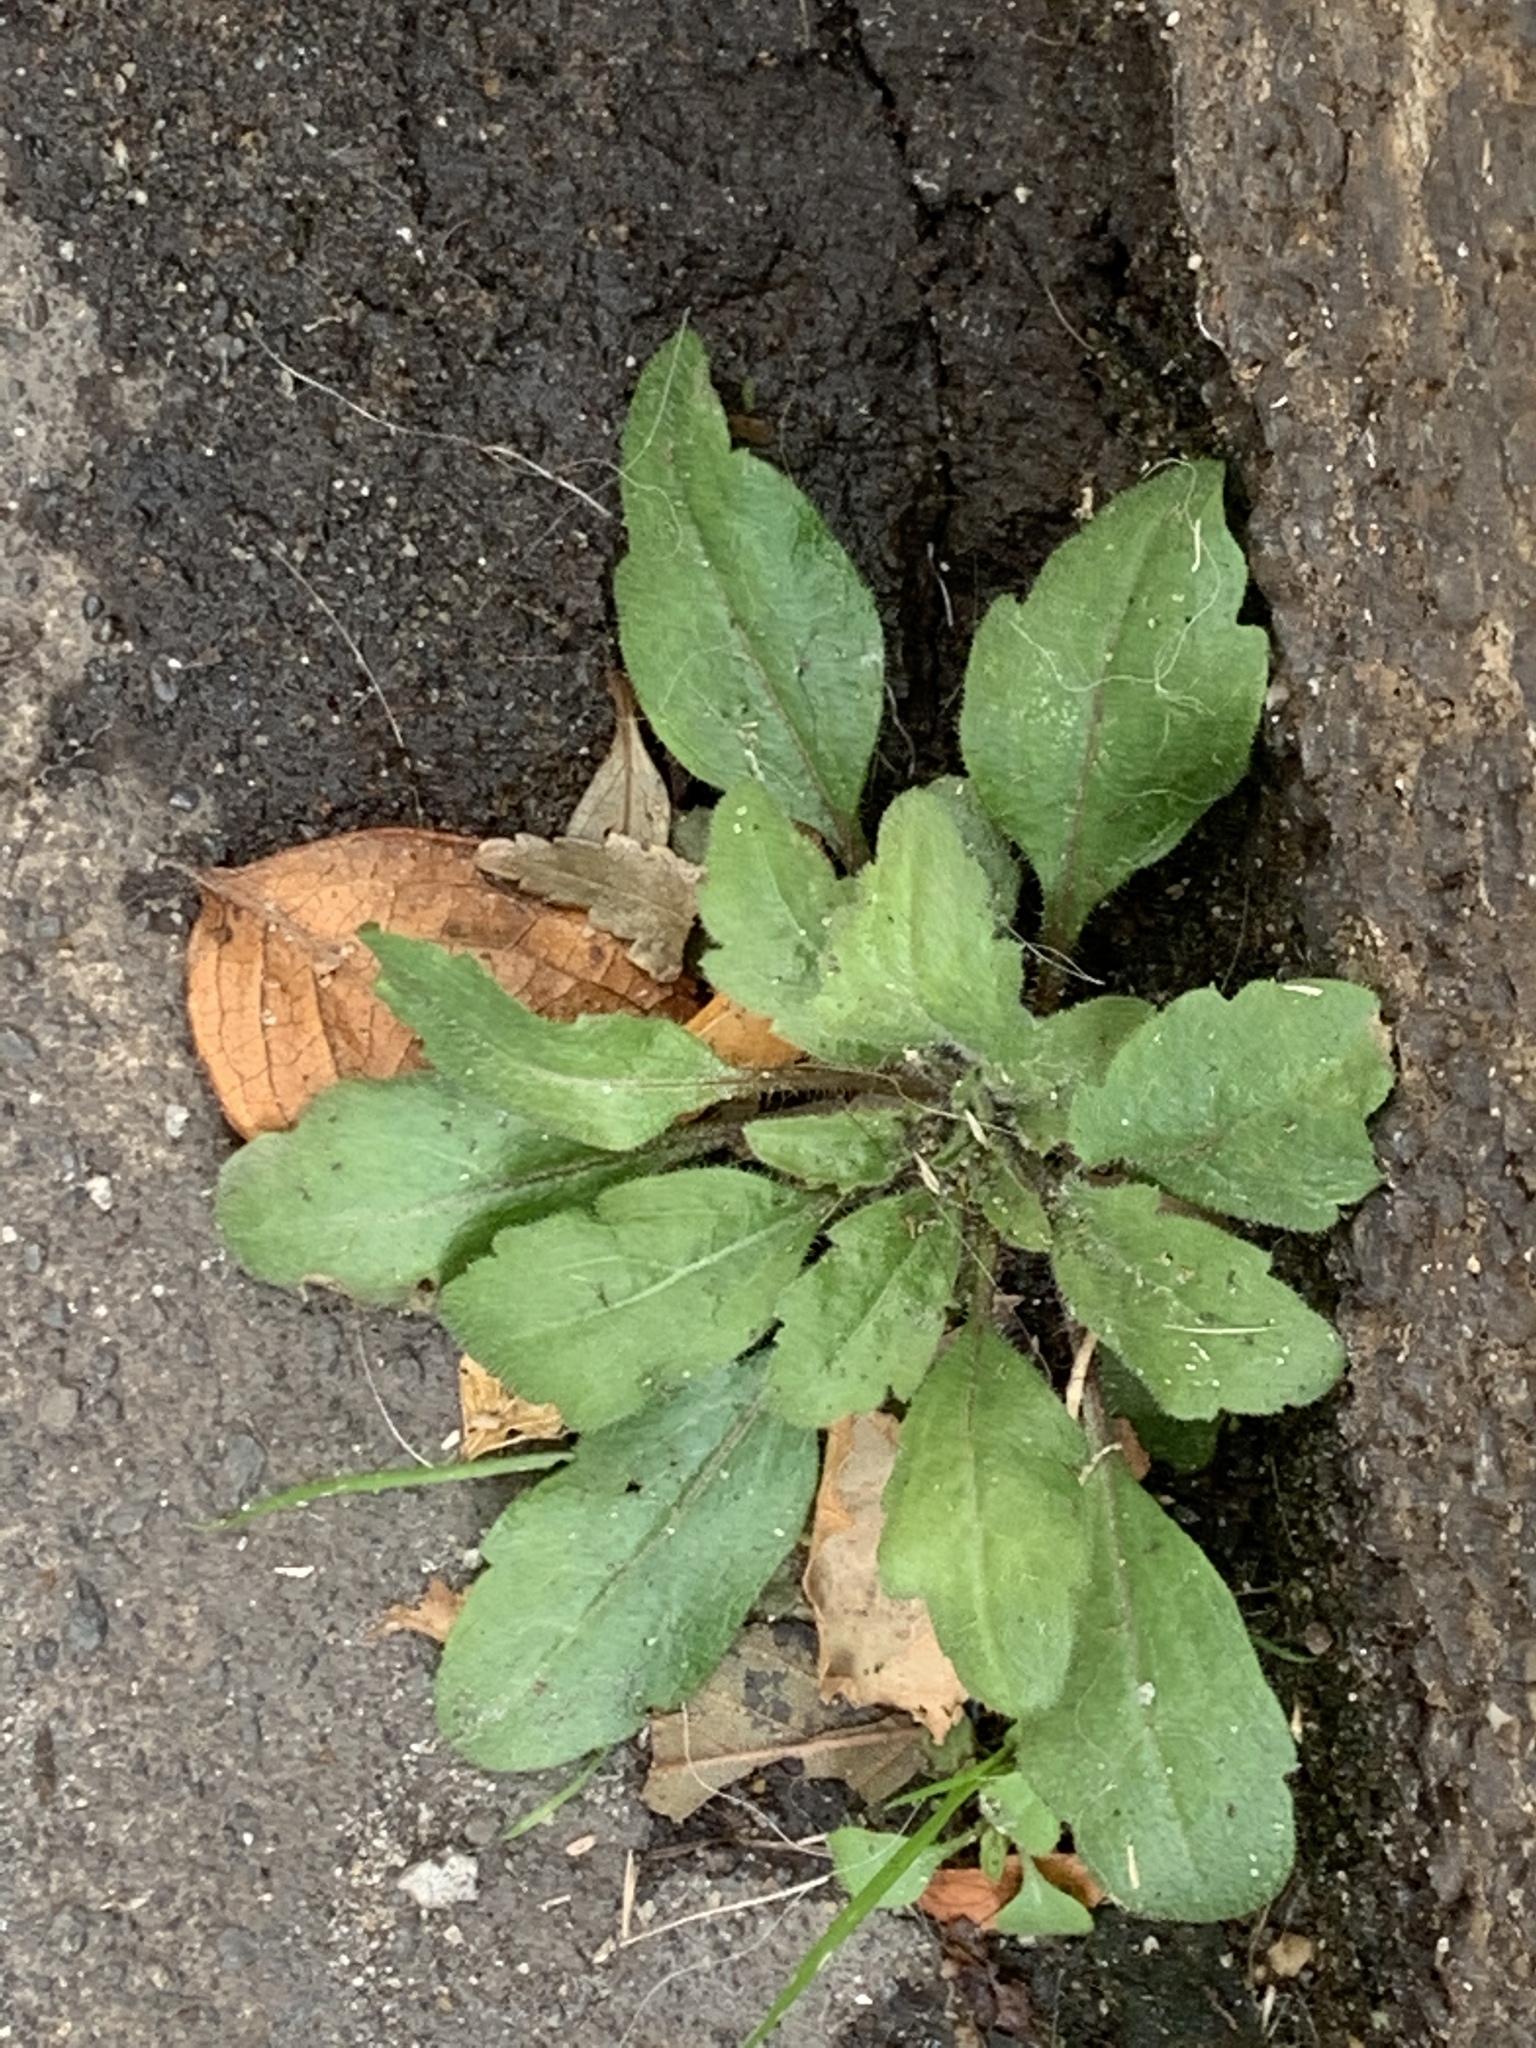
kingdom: Plantae
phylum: Tracheophyta
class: Magnoliopsida
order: Asterales
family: Asteraceae
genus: Erigeron
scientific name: Erigeron canadensis
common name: Canadian fleabane
